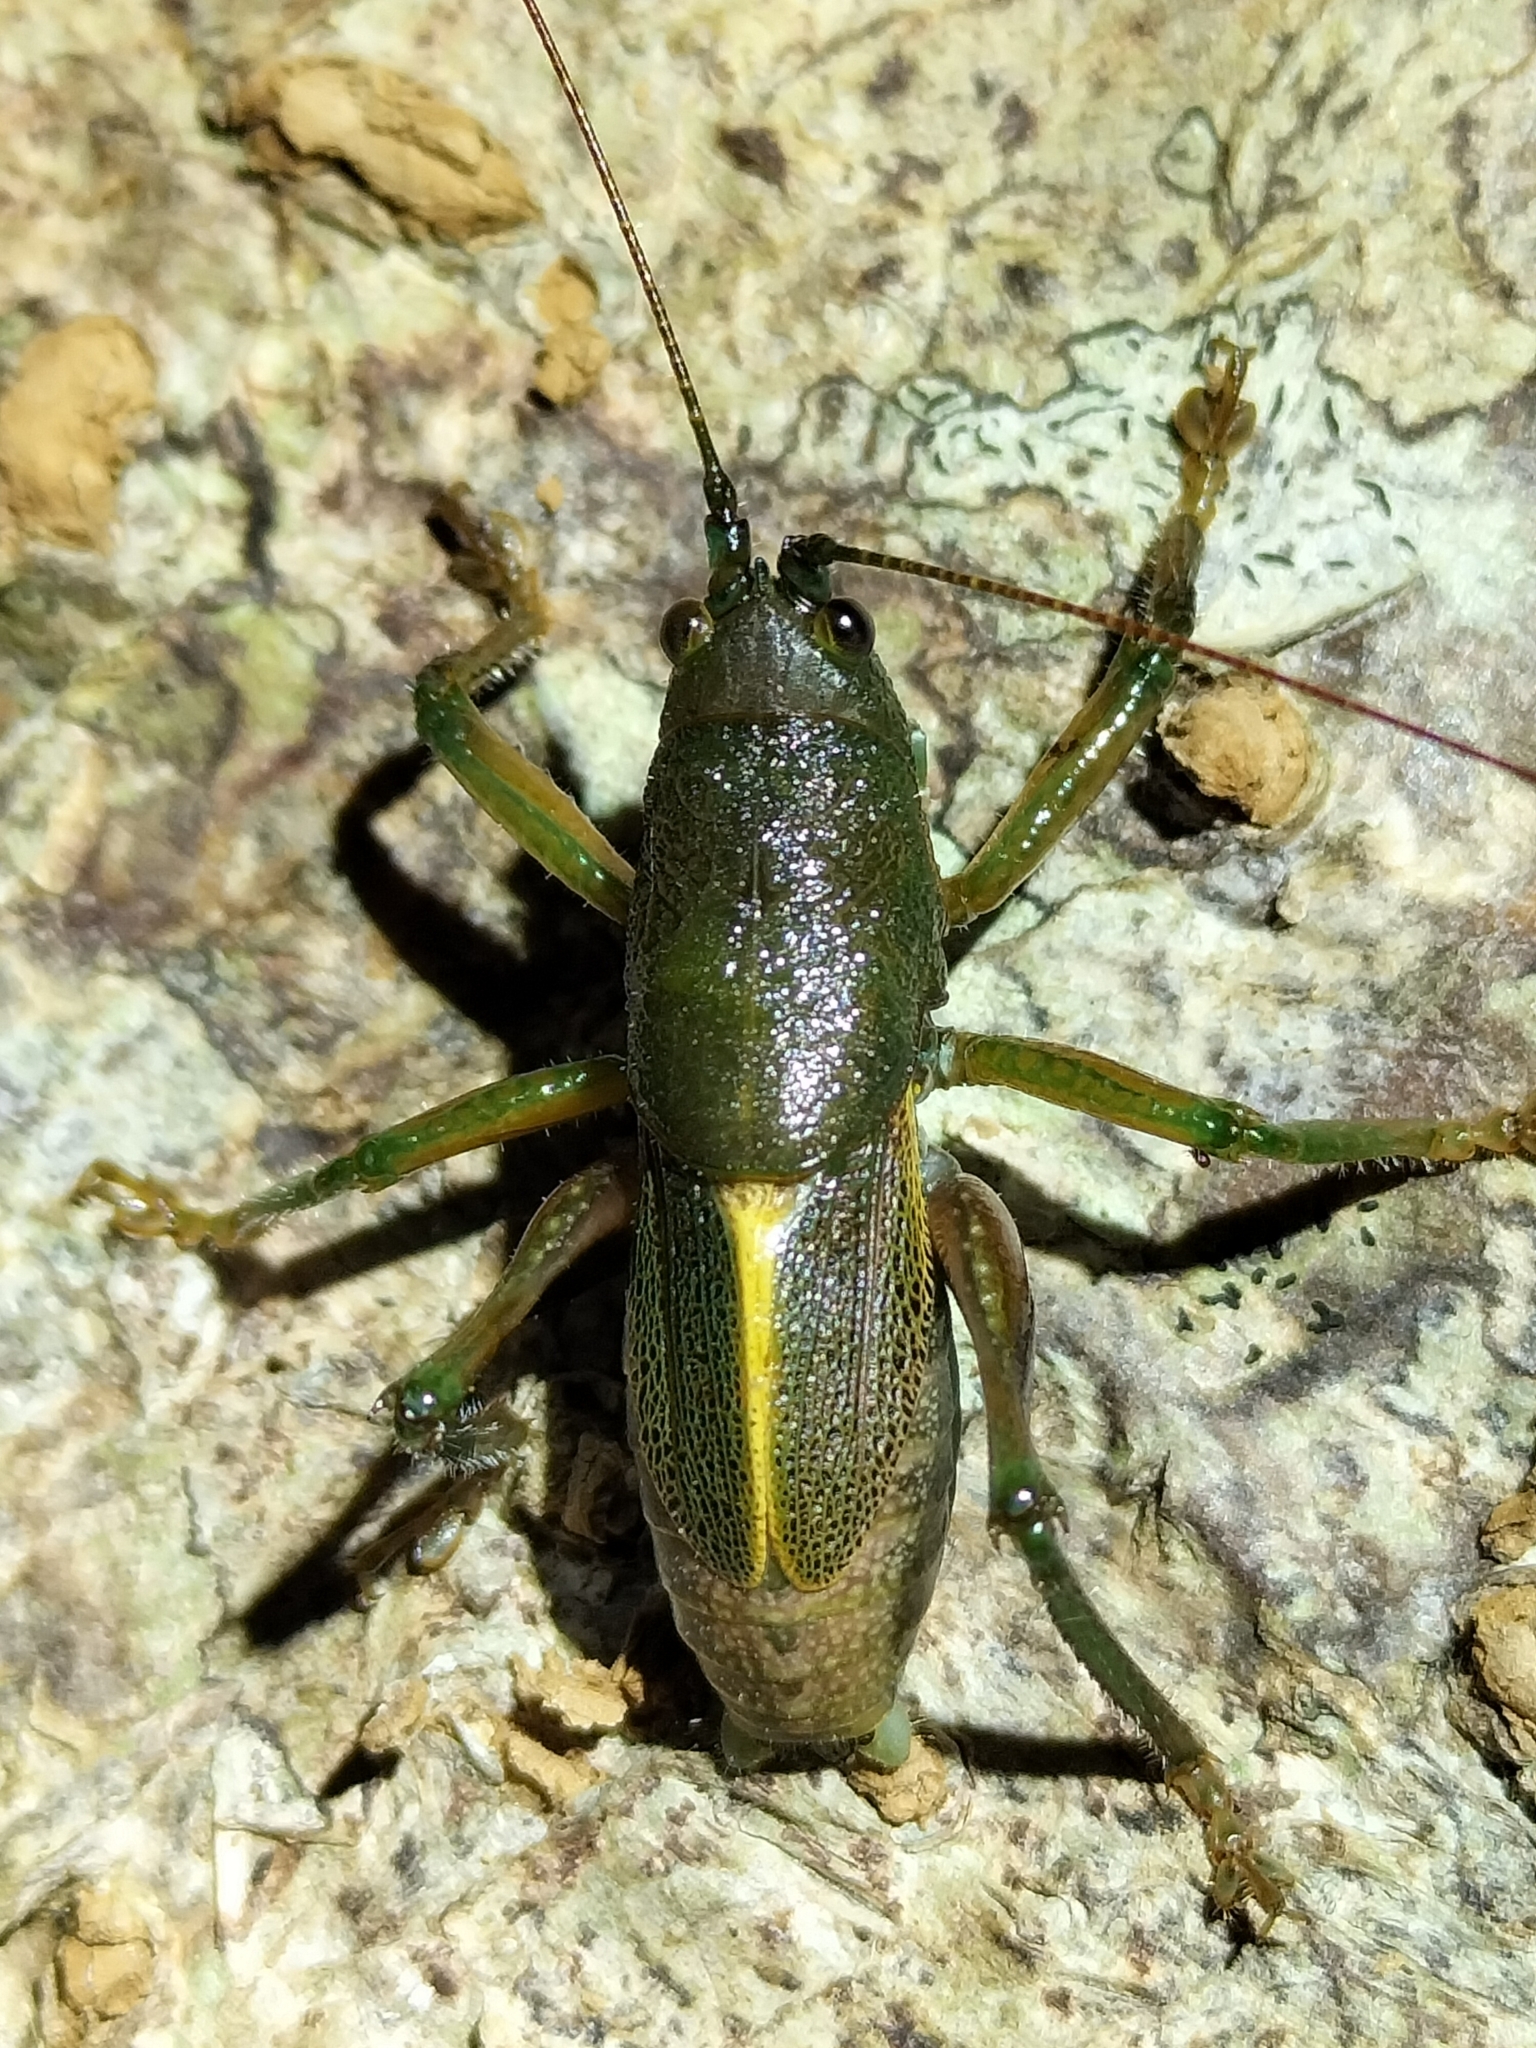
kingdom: Animalia
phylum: Arthropoda
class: Insecta
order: Orthoptera
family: Tettigoniidae
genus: Ingrischagraecia
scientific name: Ingrischagraecia iterika
